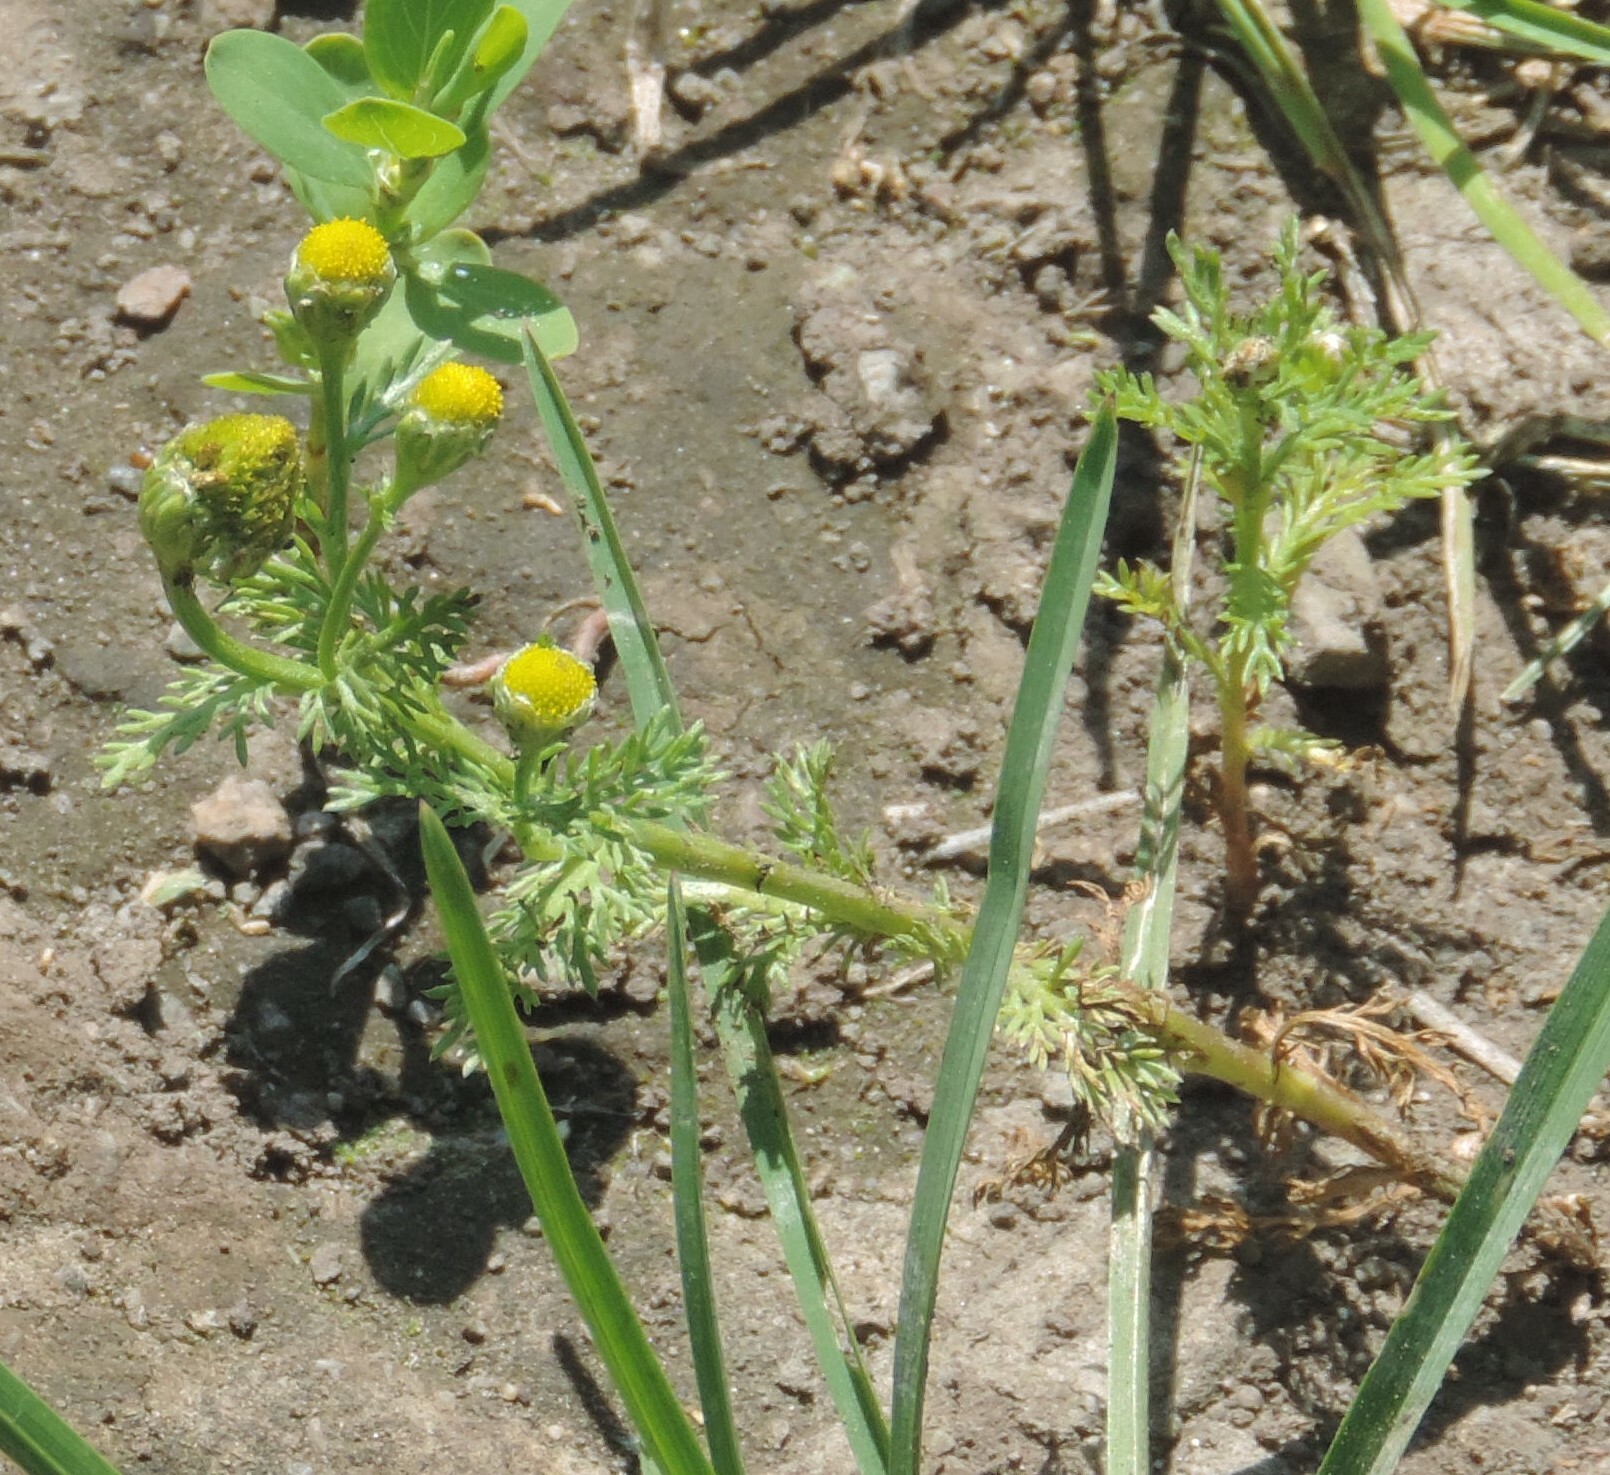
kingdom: Plantae
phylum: Tracheophyta
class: Magnoliopsida
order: Asterales
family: Asteraceae
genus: Matricaria
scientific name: Matricaria discoidea
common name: Disc mayweed
